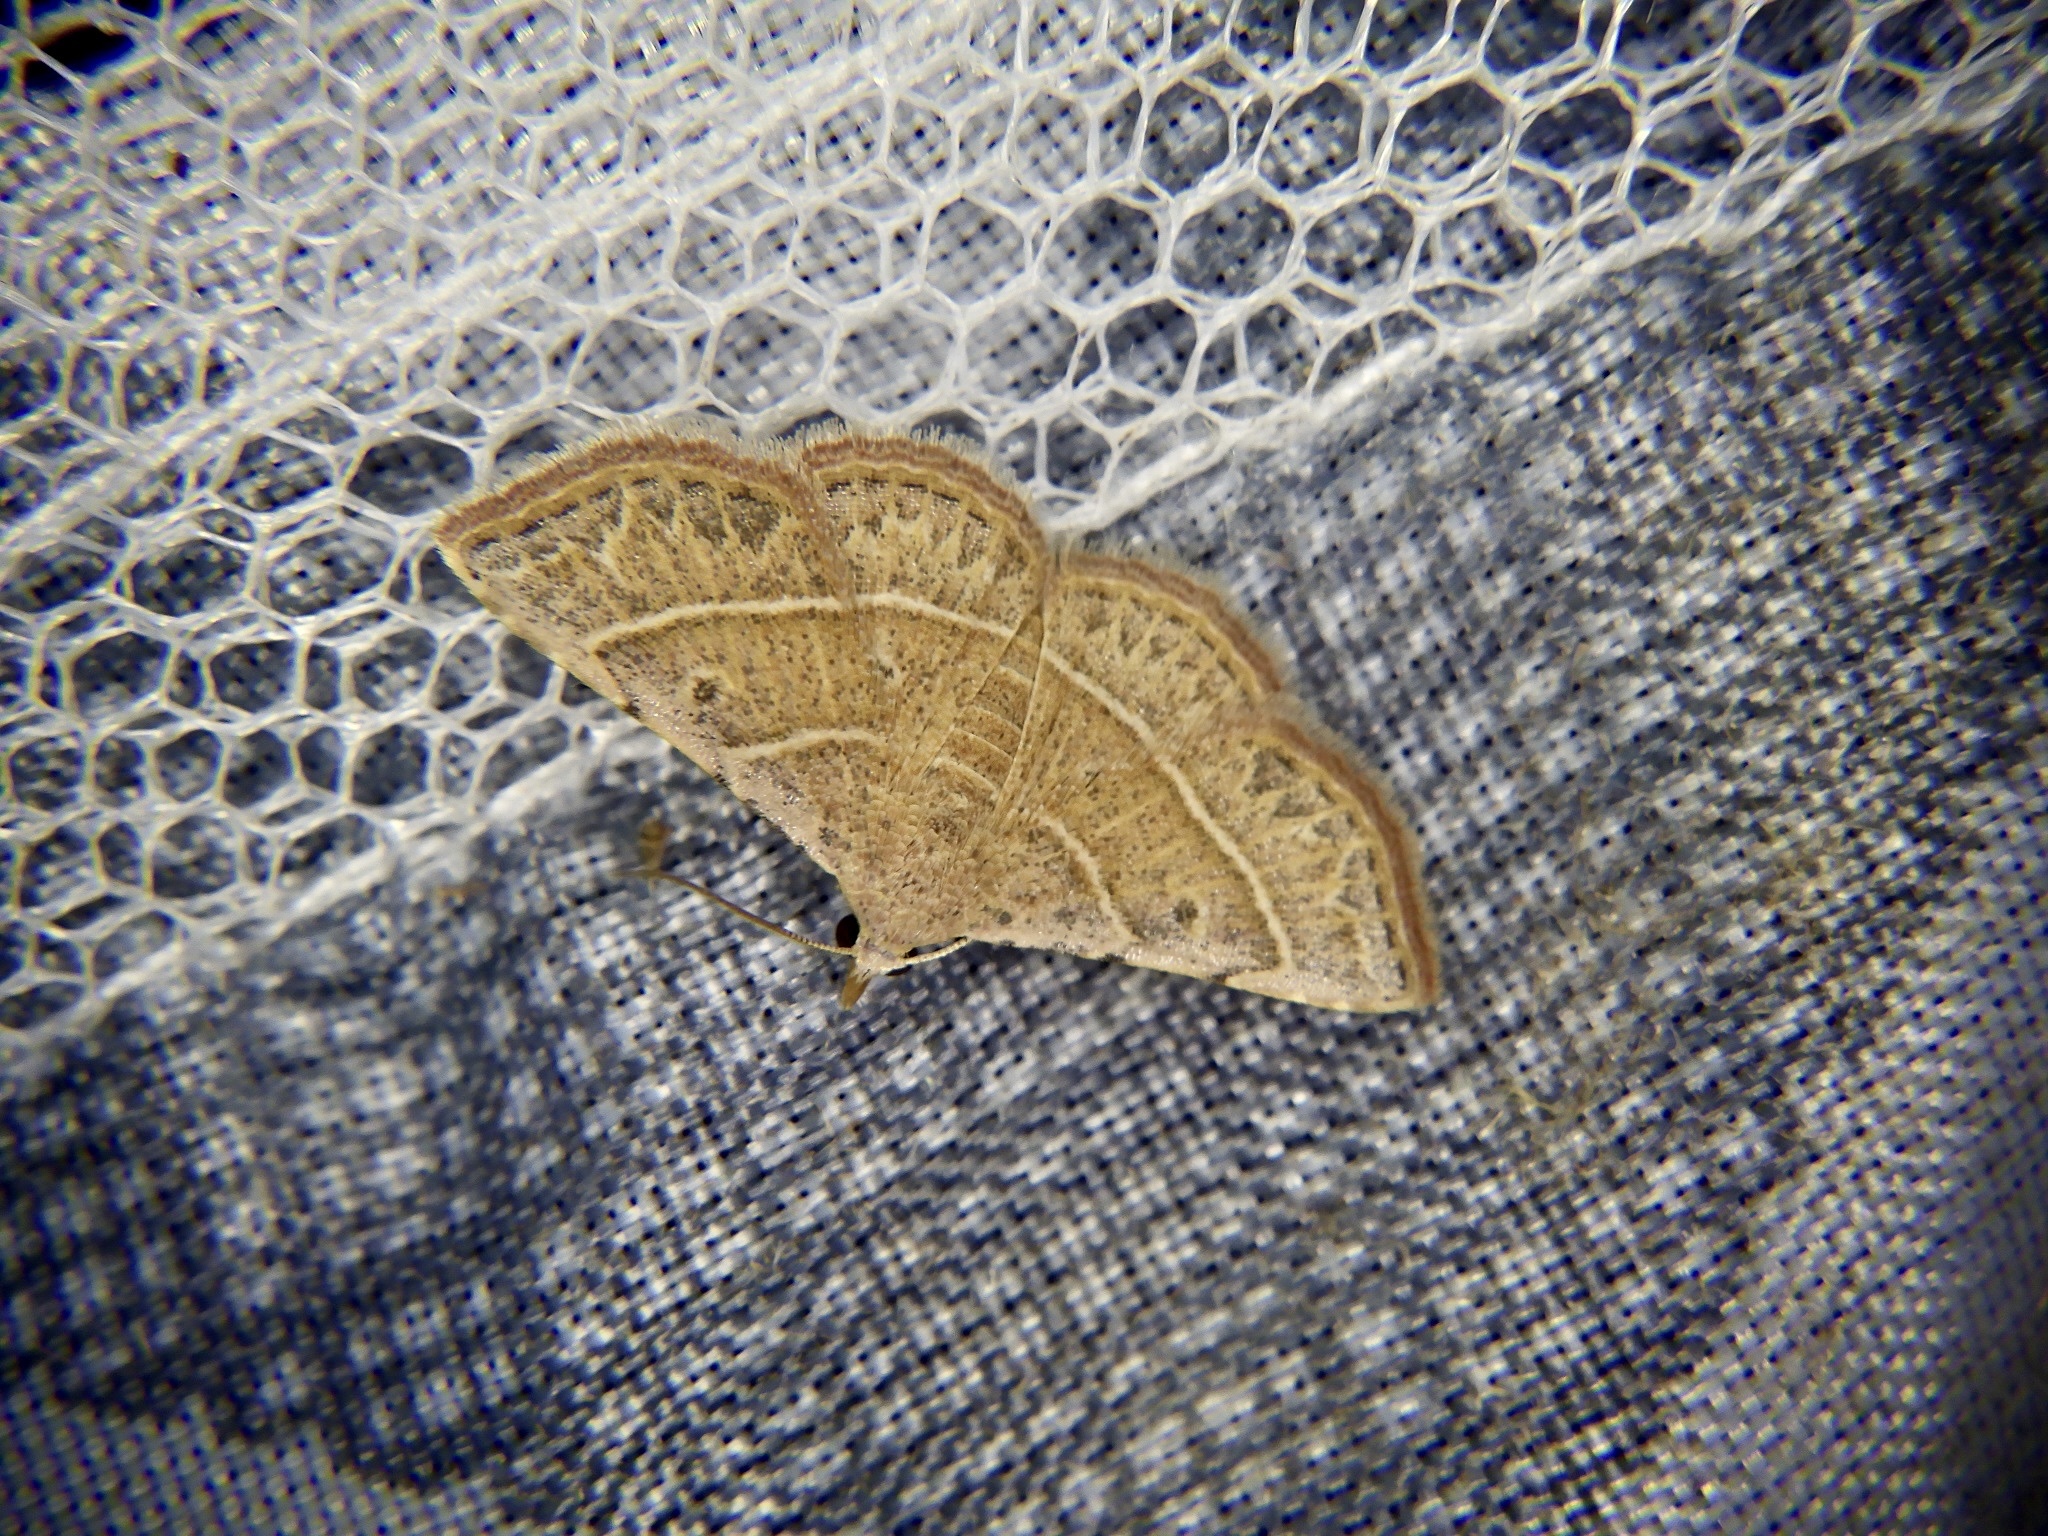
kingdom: Animalia
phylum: Arthropoda
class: Insecta
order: Lepidoptera
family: Erebidae
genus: Corgatha
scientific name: Corgatha dictaria
